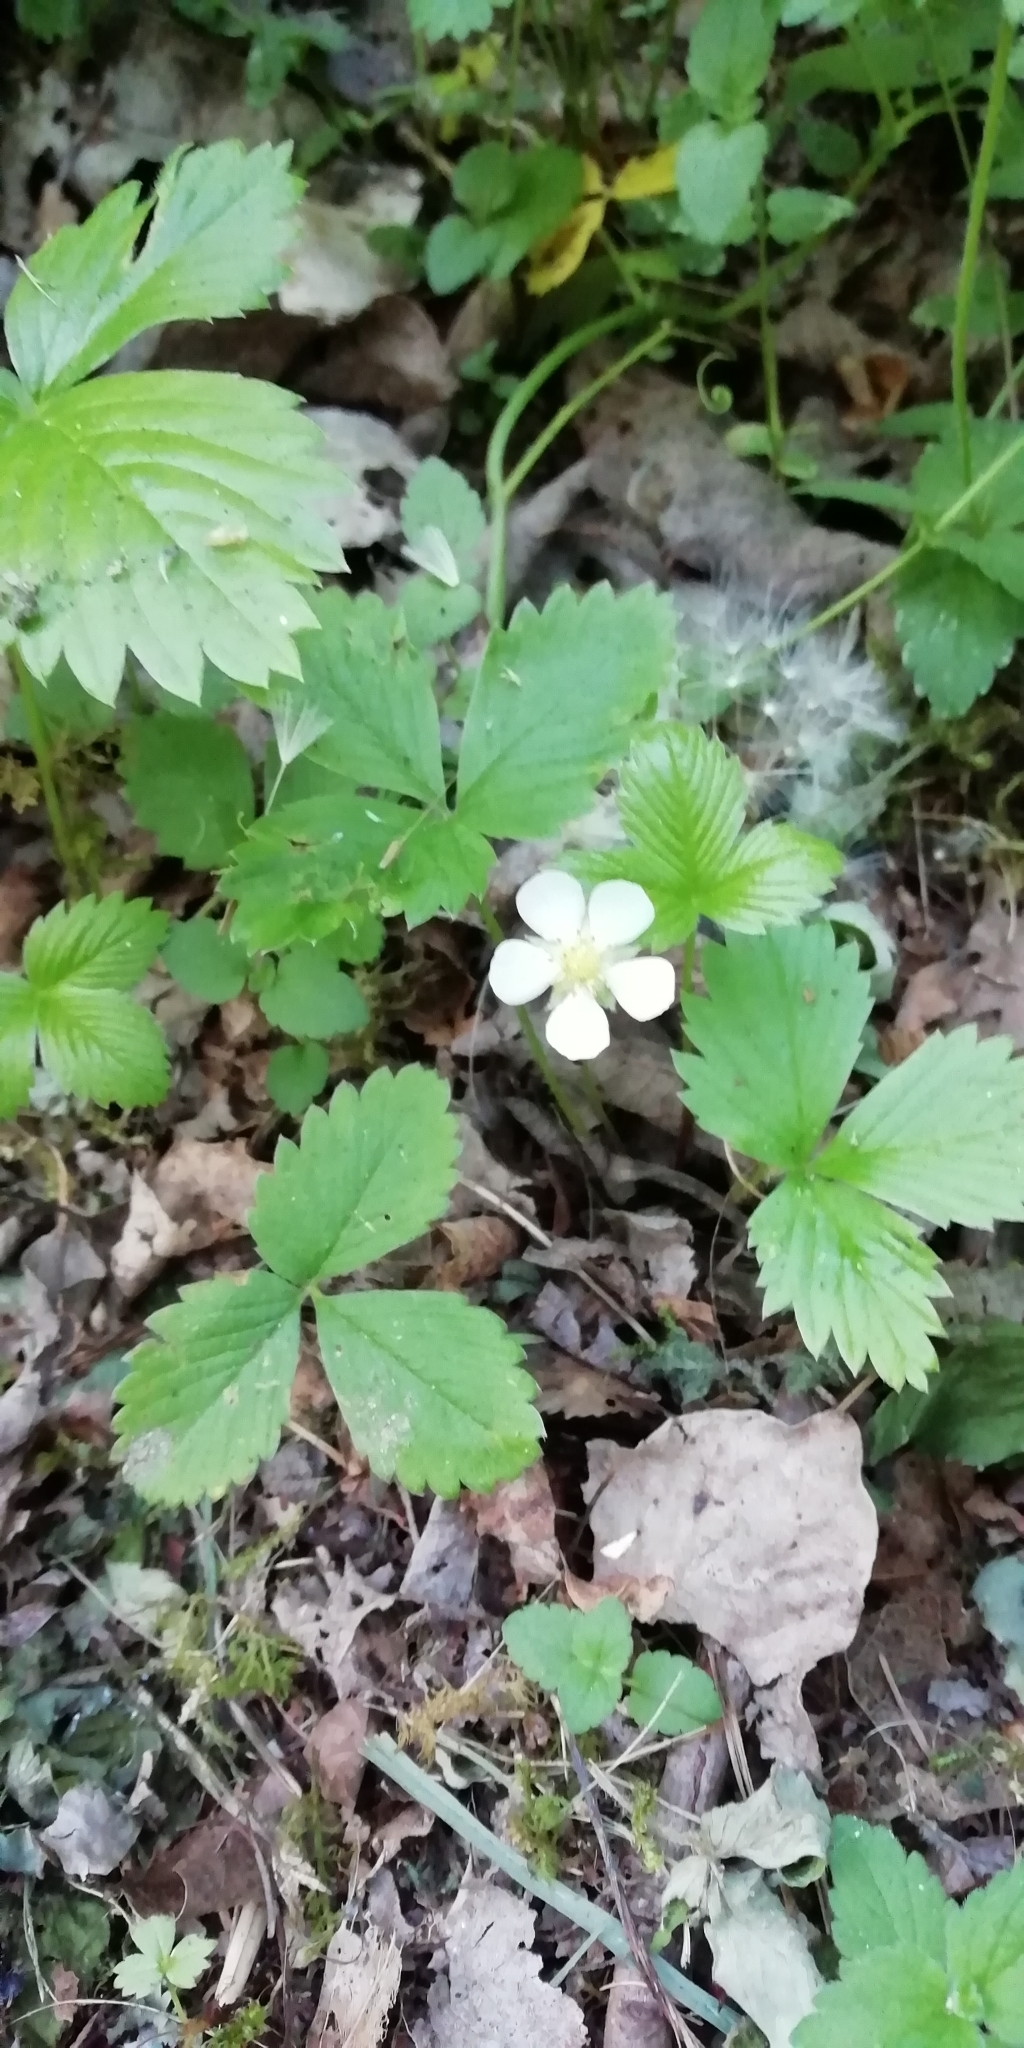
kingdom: Plantae
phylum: Tracheophyta
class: Magnoliopsida
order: Rosales
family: Rosaceae
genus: Fragaria
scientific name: Fragaria vesca
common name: Wild strawberry
